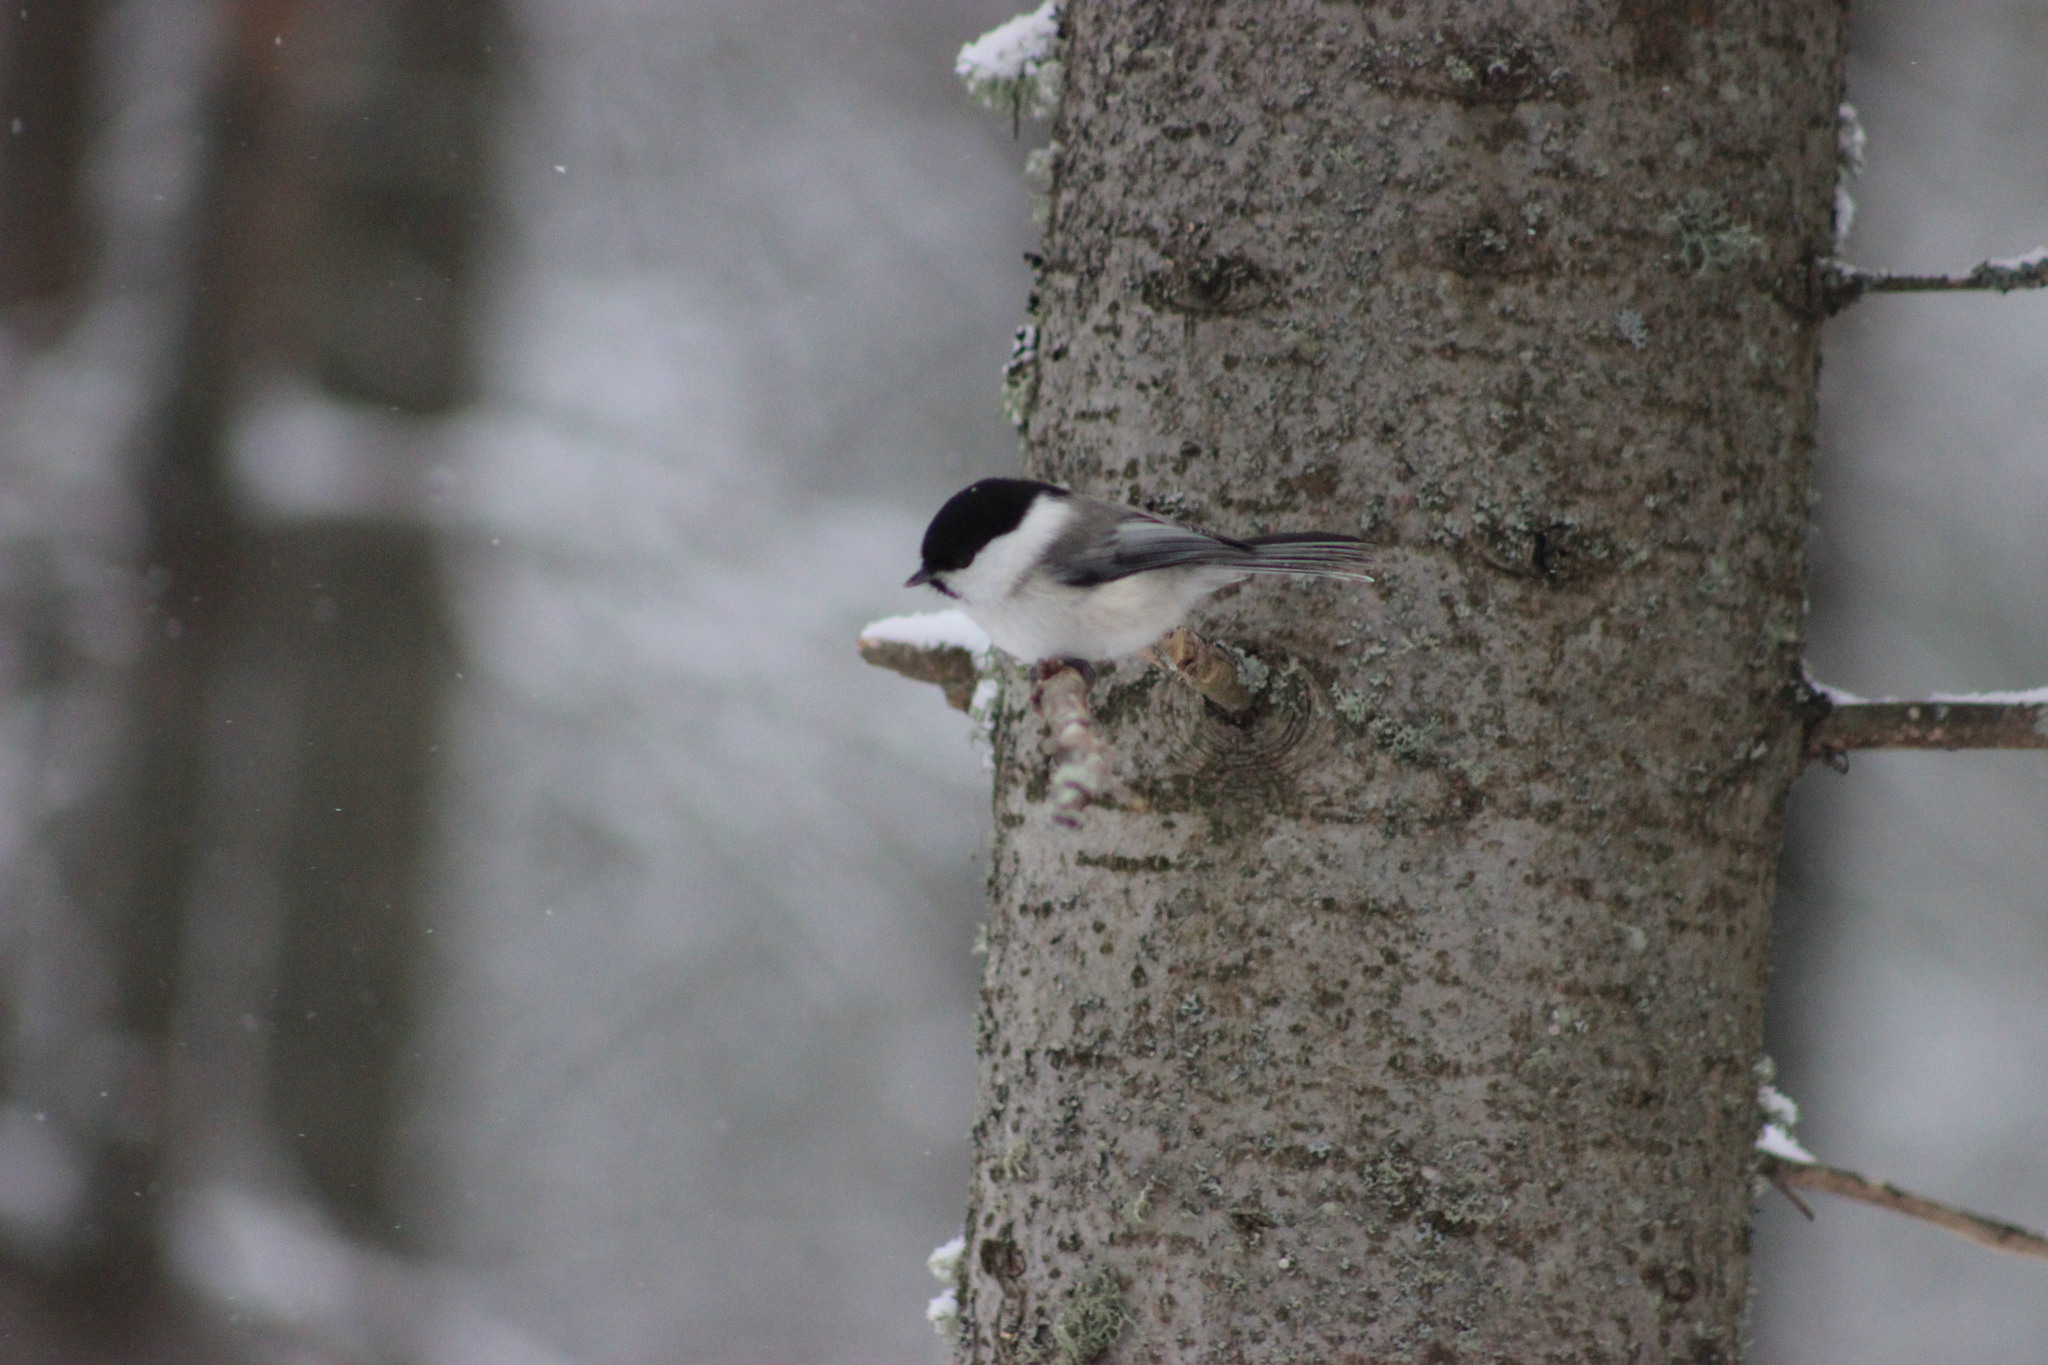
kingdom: Animalia
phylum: Chordata
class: Aves
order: Passeriformes
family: Paridae
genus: Poecile
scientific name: Poecile montanus
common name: Willow tit
